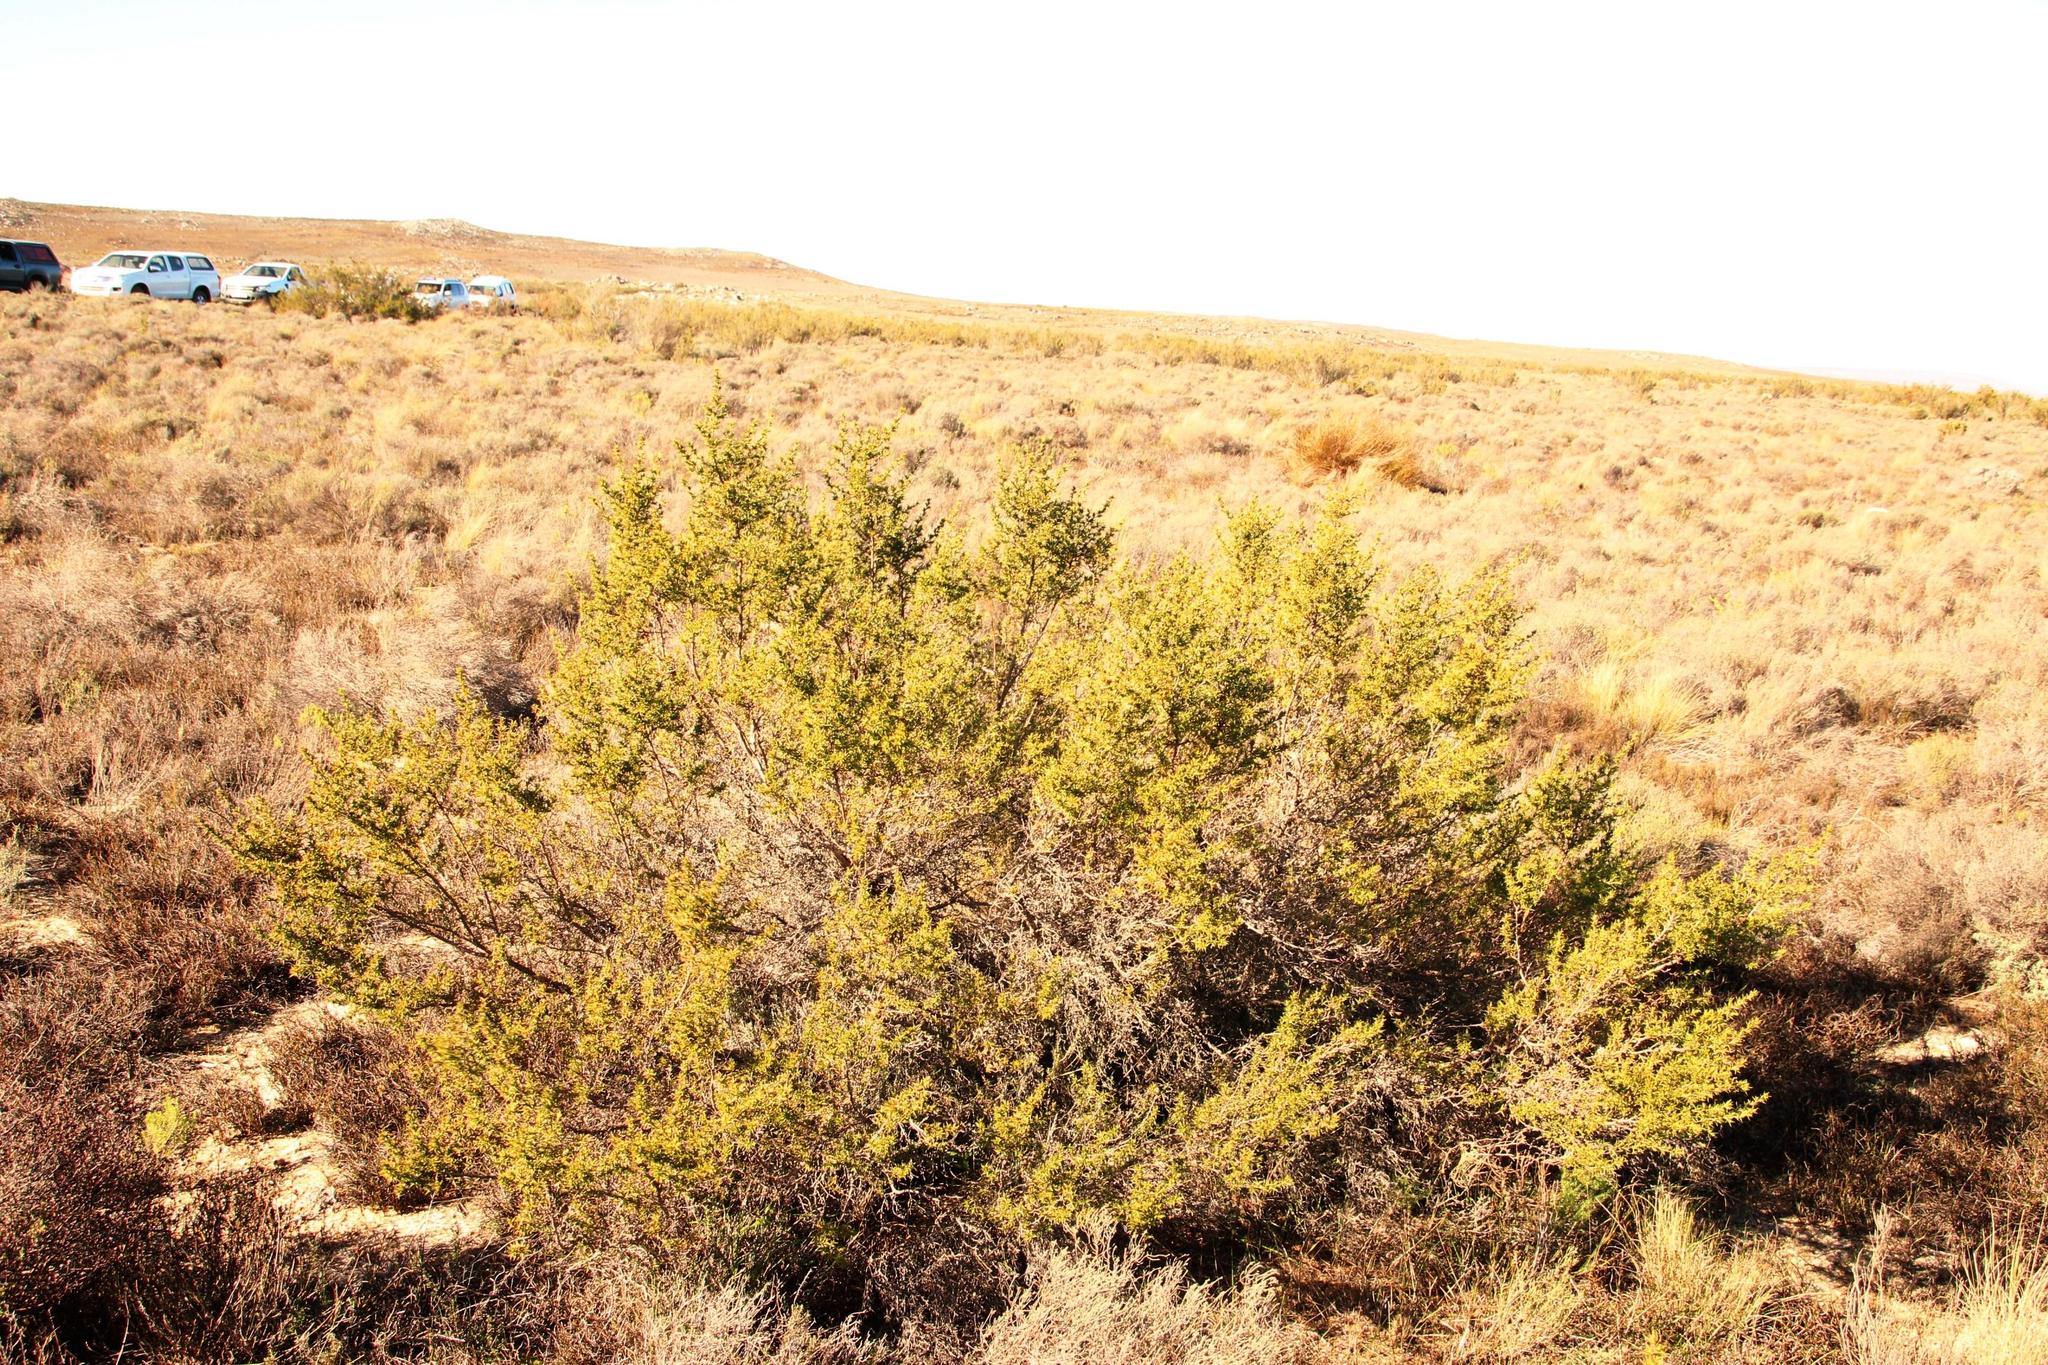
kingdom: Plantae
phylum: Tracheophyta
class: Magnoliopsida
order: Rosales
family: Rosaceae
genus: Cliffortia
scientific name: Cliffortia ruscifolia
